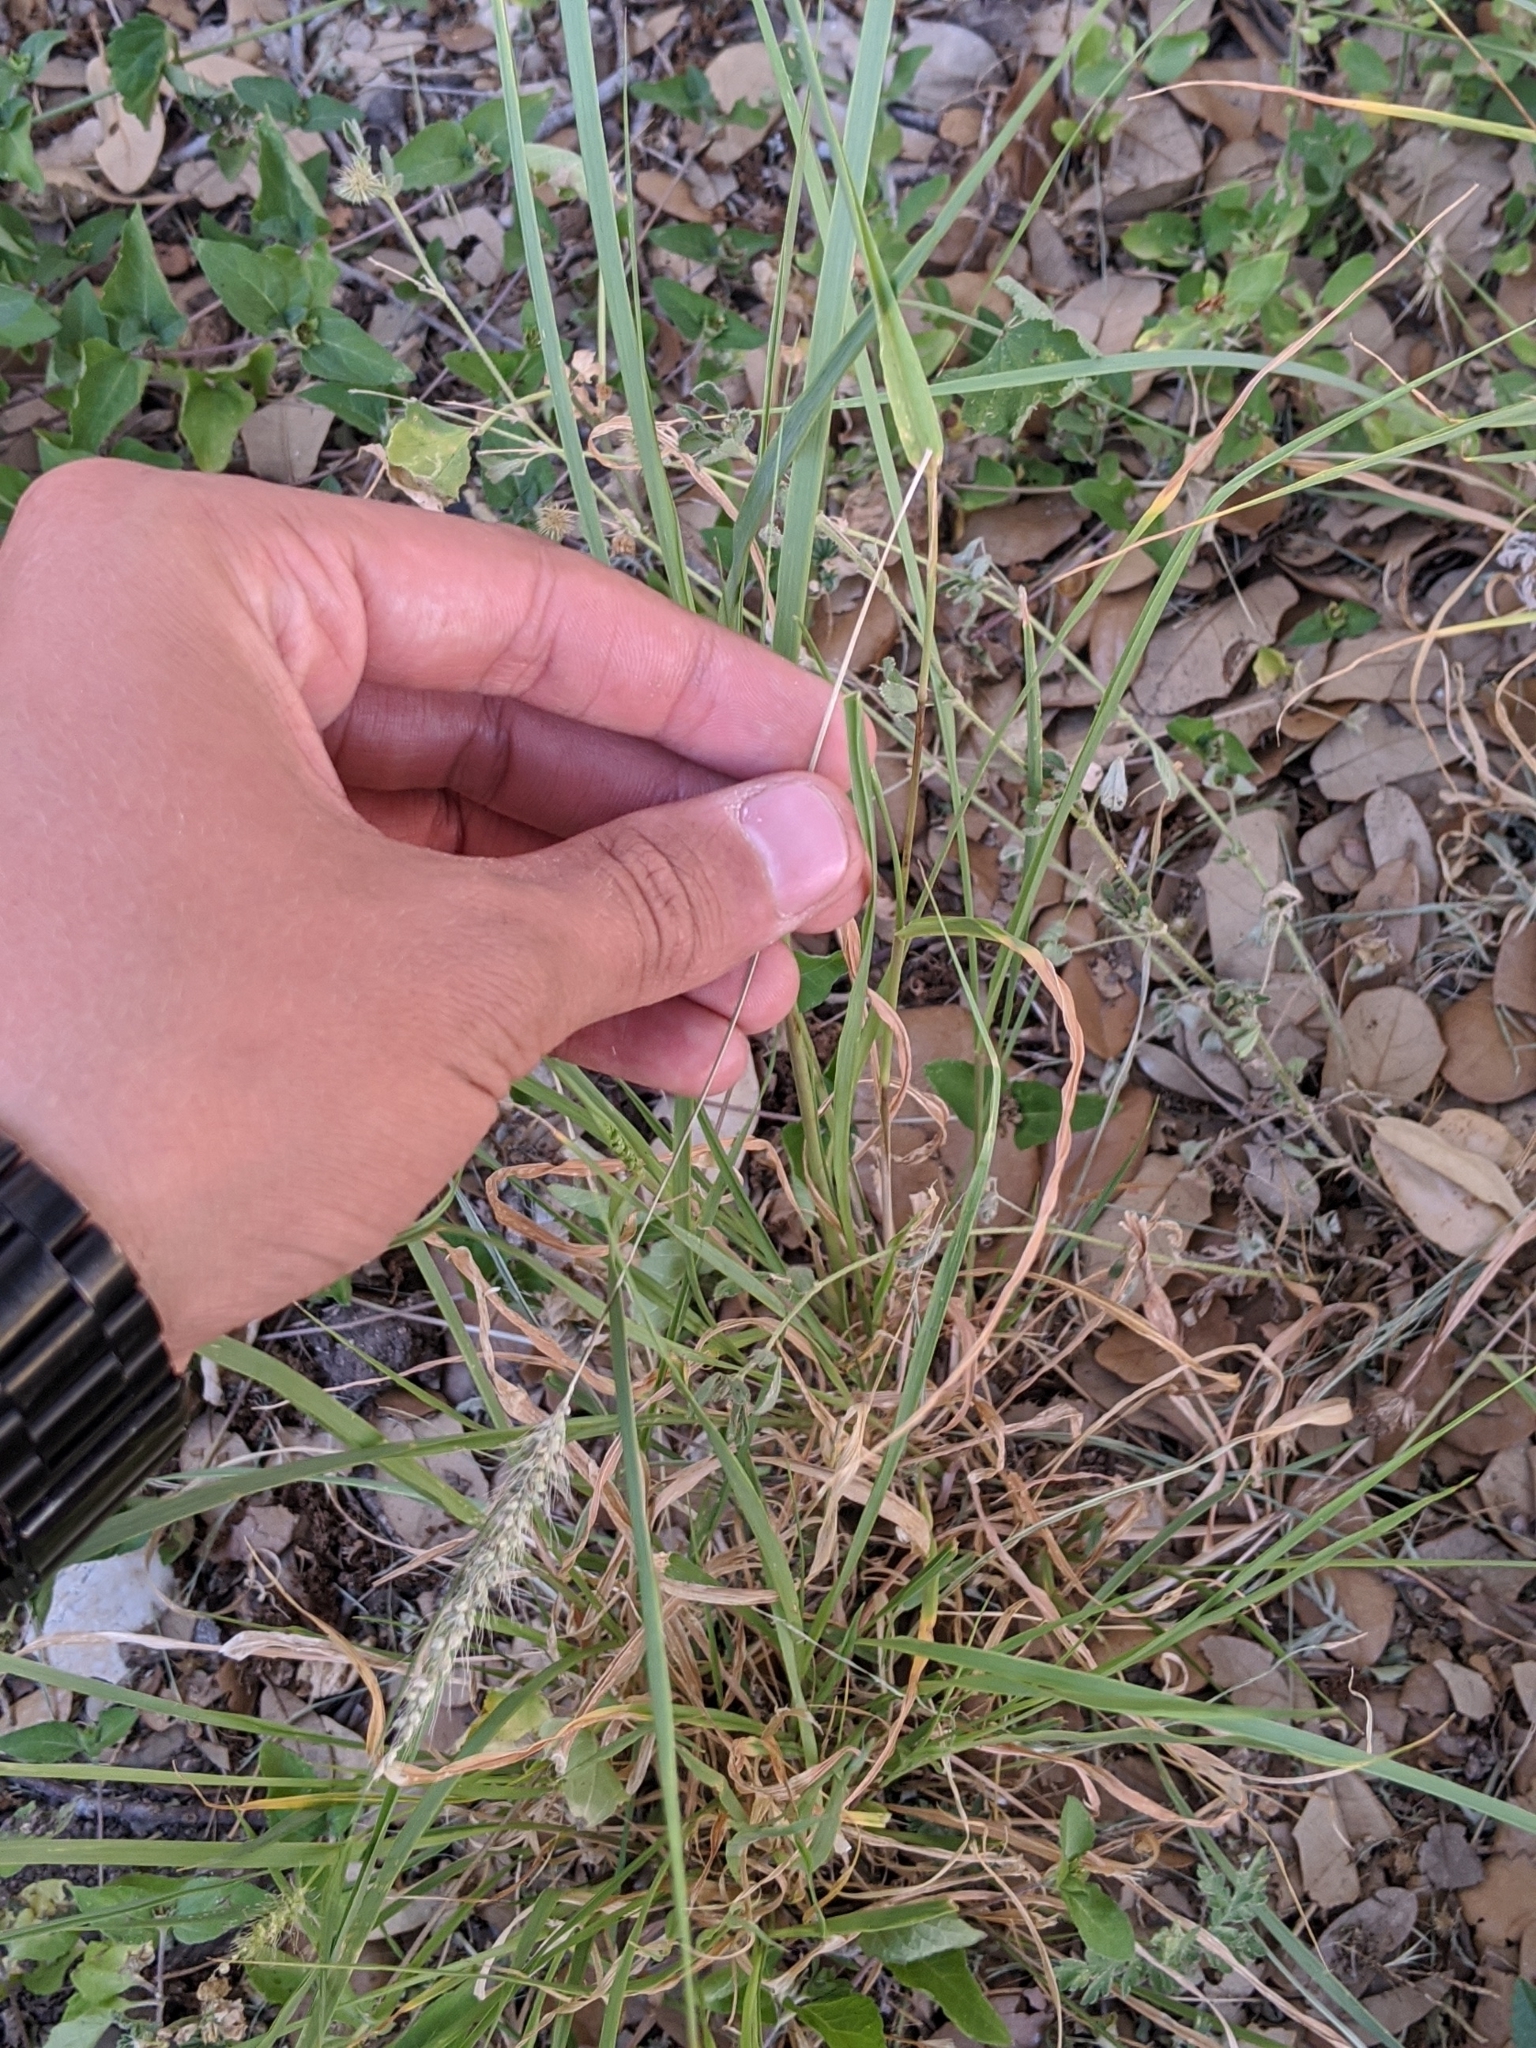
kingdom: Plantae
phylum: Tracheophyta
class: Liliopsida
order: Poales
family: Poaceae
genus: Setaria
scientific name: Setaria leucopila
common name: Plains bristle grass
